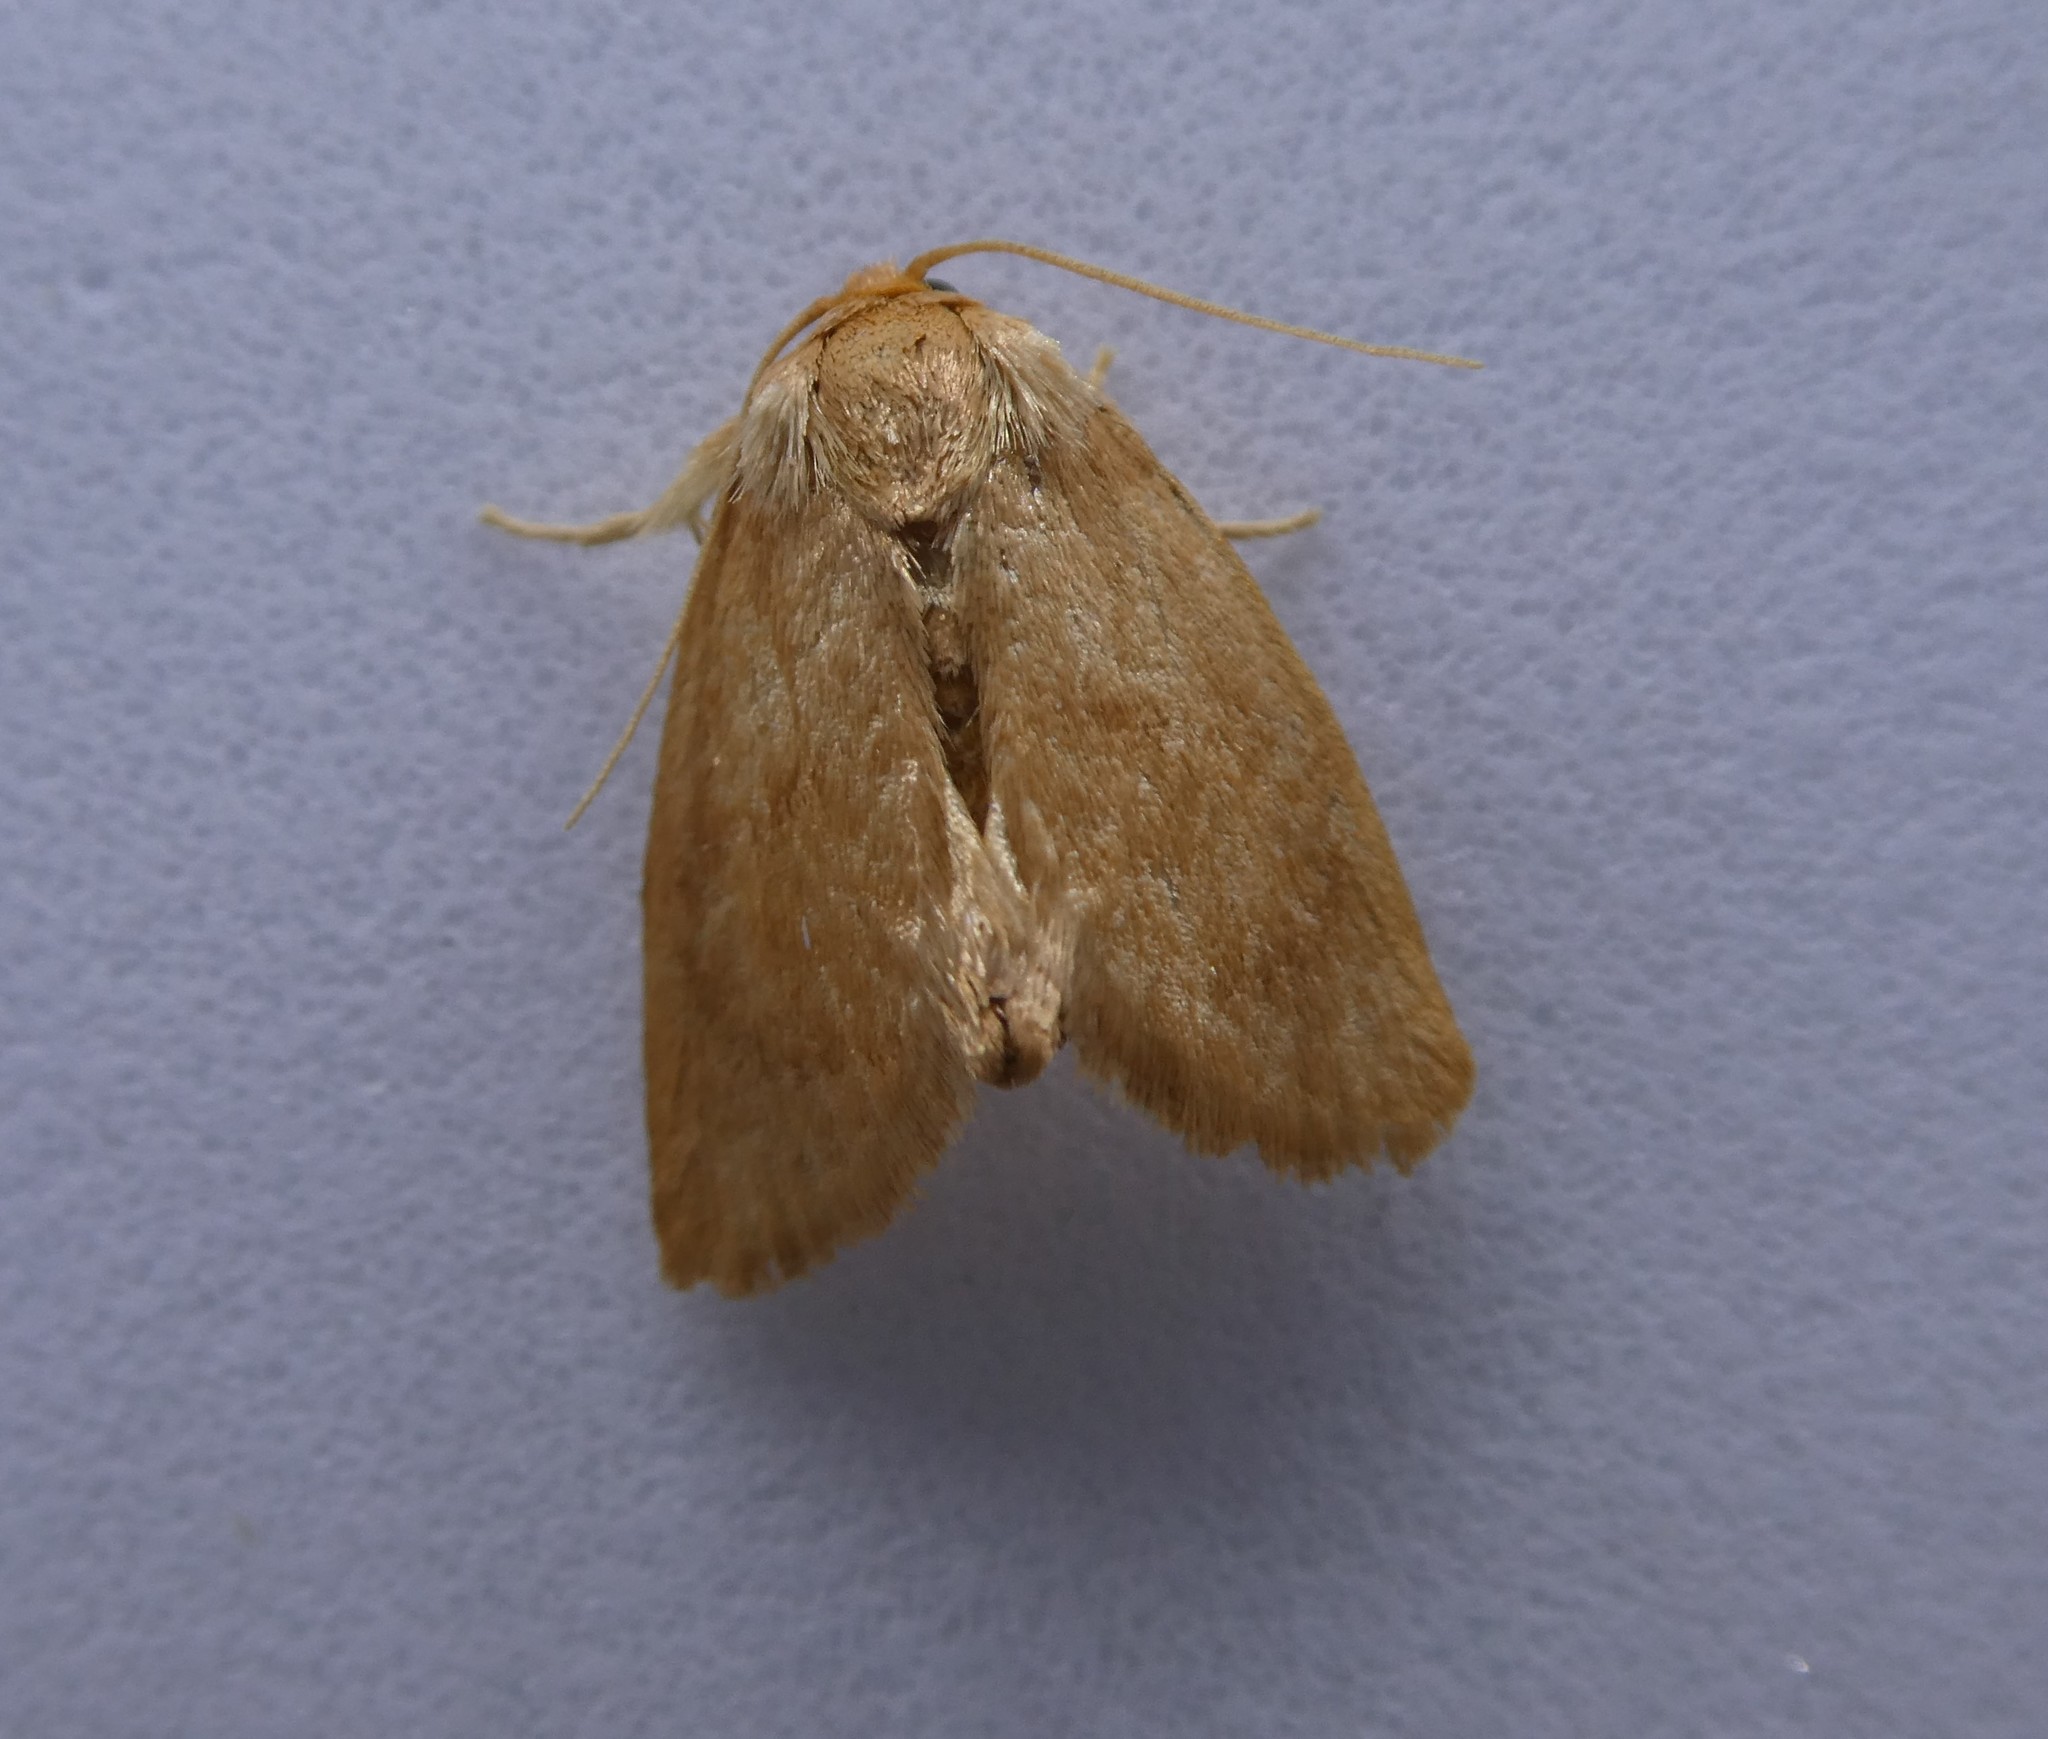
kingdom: Animalia
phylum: Arthropoda
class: Insecta
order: Lepidoptera
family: Limacodidae
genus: Tortricidia
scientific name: Tortricidia pallida
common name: Red-crossed button slug moth
